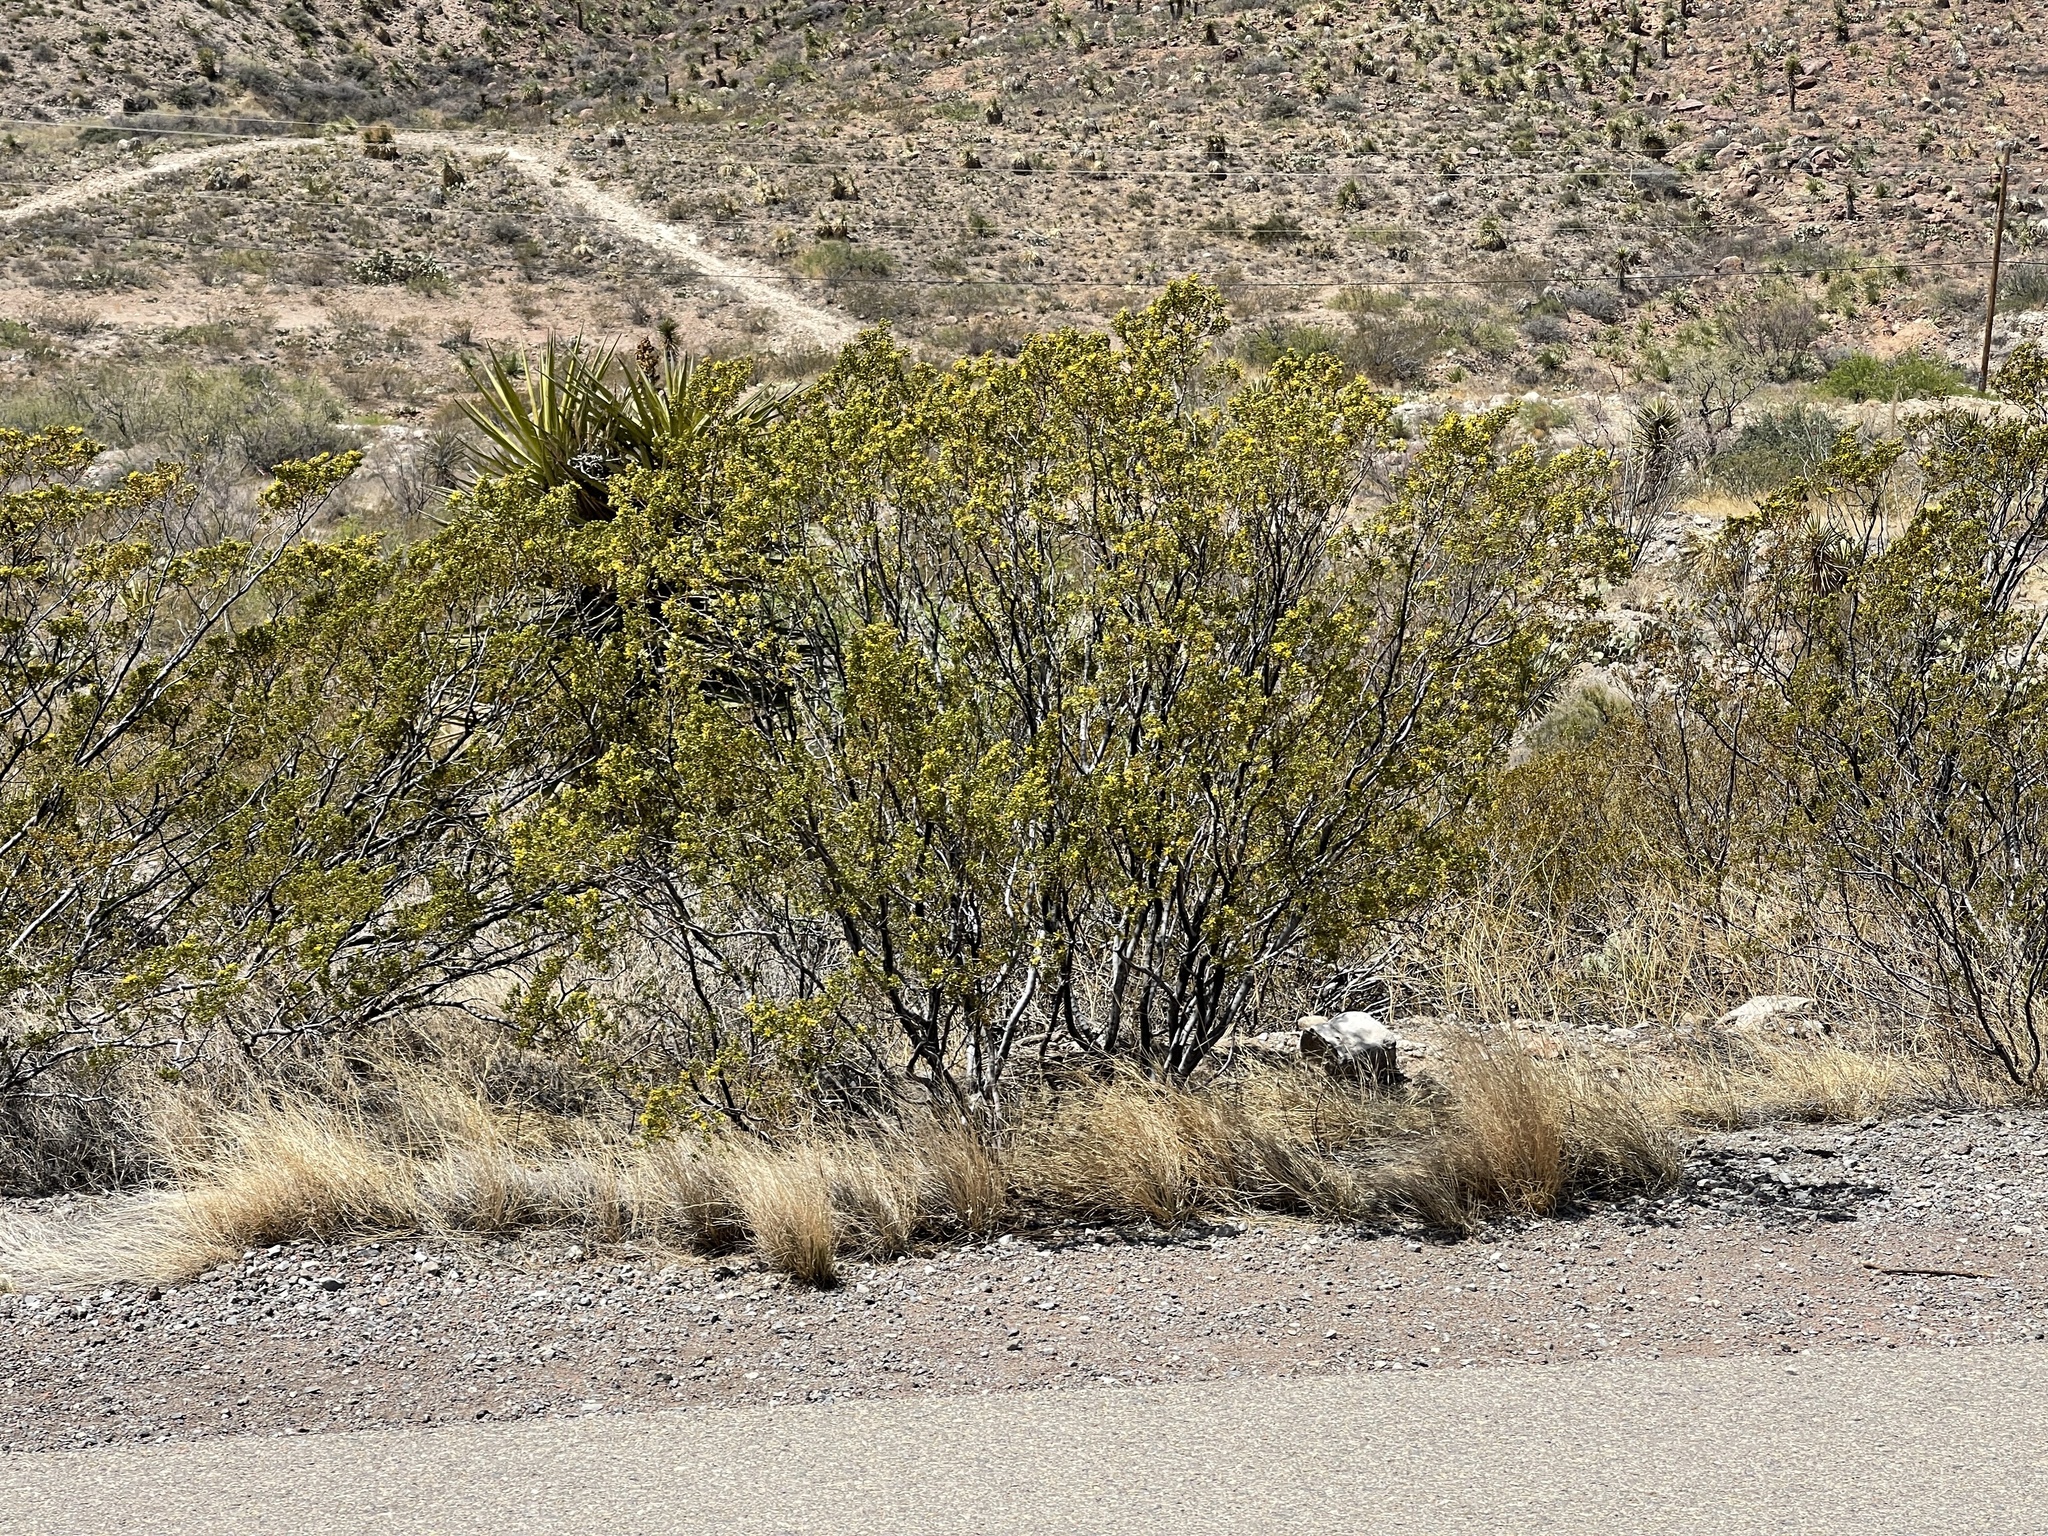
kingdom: Plantae
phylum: Tracheophyta
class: Magnoliopsida
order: Zygophyllales
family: Zygophyllaceae
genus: Larrea
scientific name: Larrea tridentata
